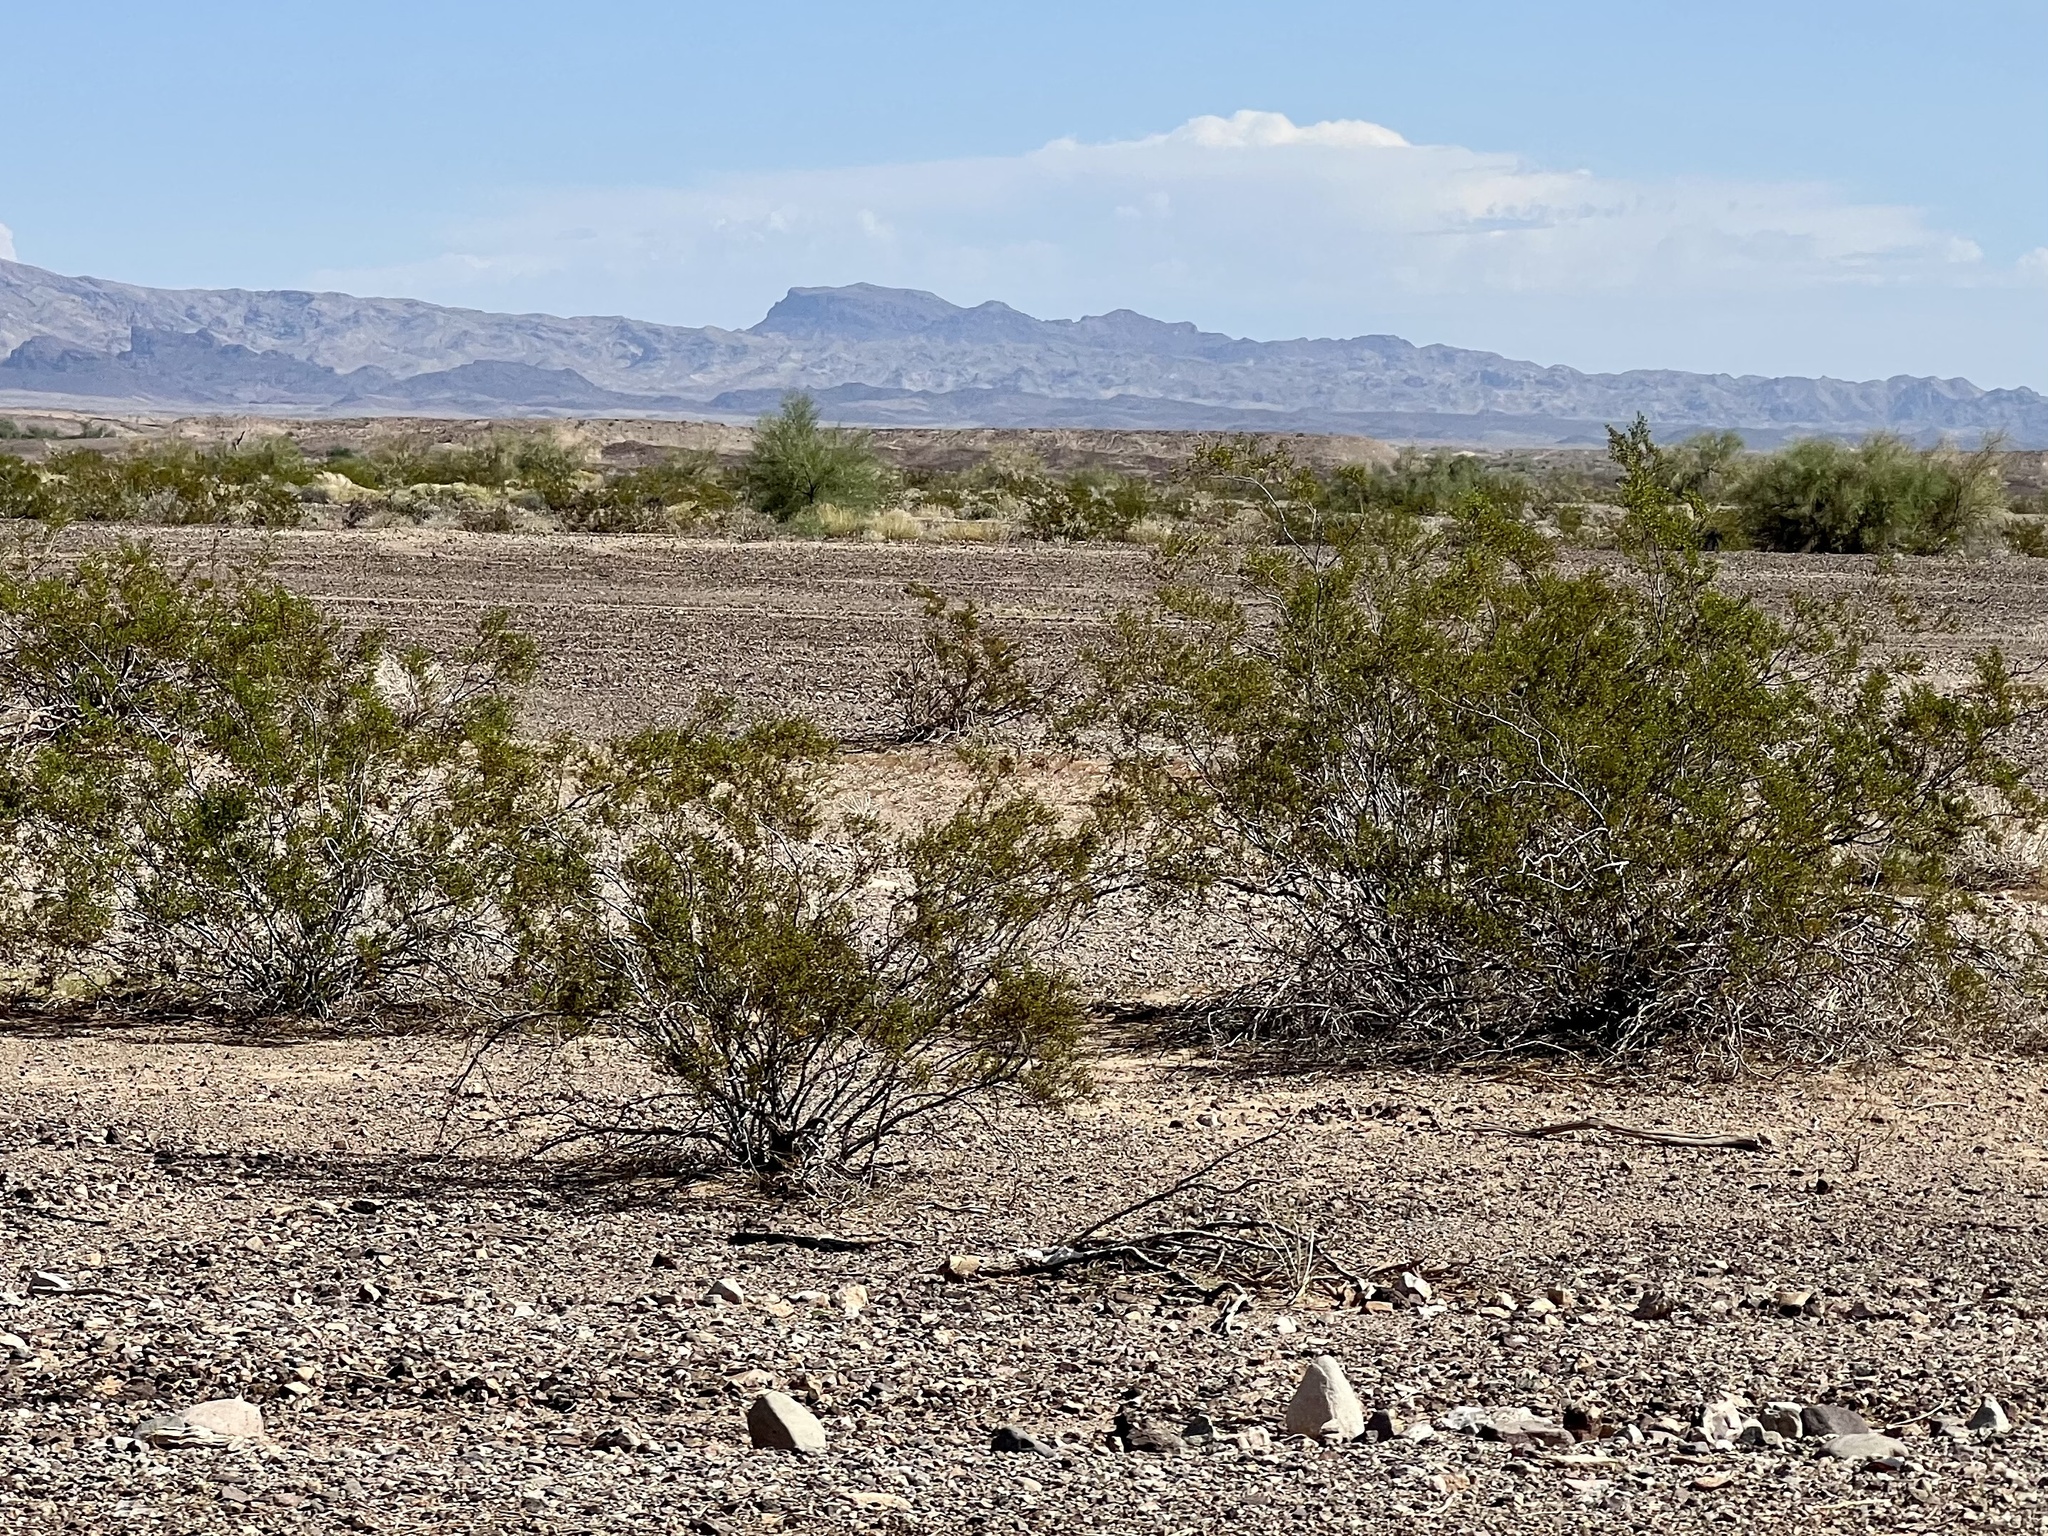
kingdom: Plantae
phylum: Tracheophyta
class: Magnoliopsida
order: Zygophyllales
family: Zygophyllaceae
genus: Larrea
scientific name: Larrea tridentata
